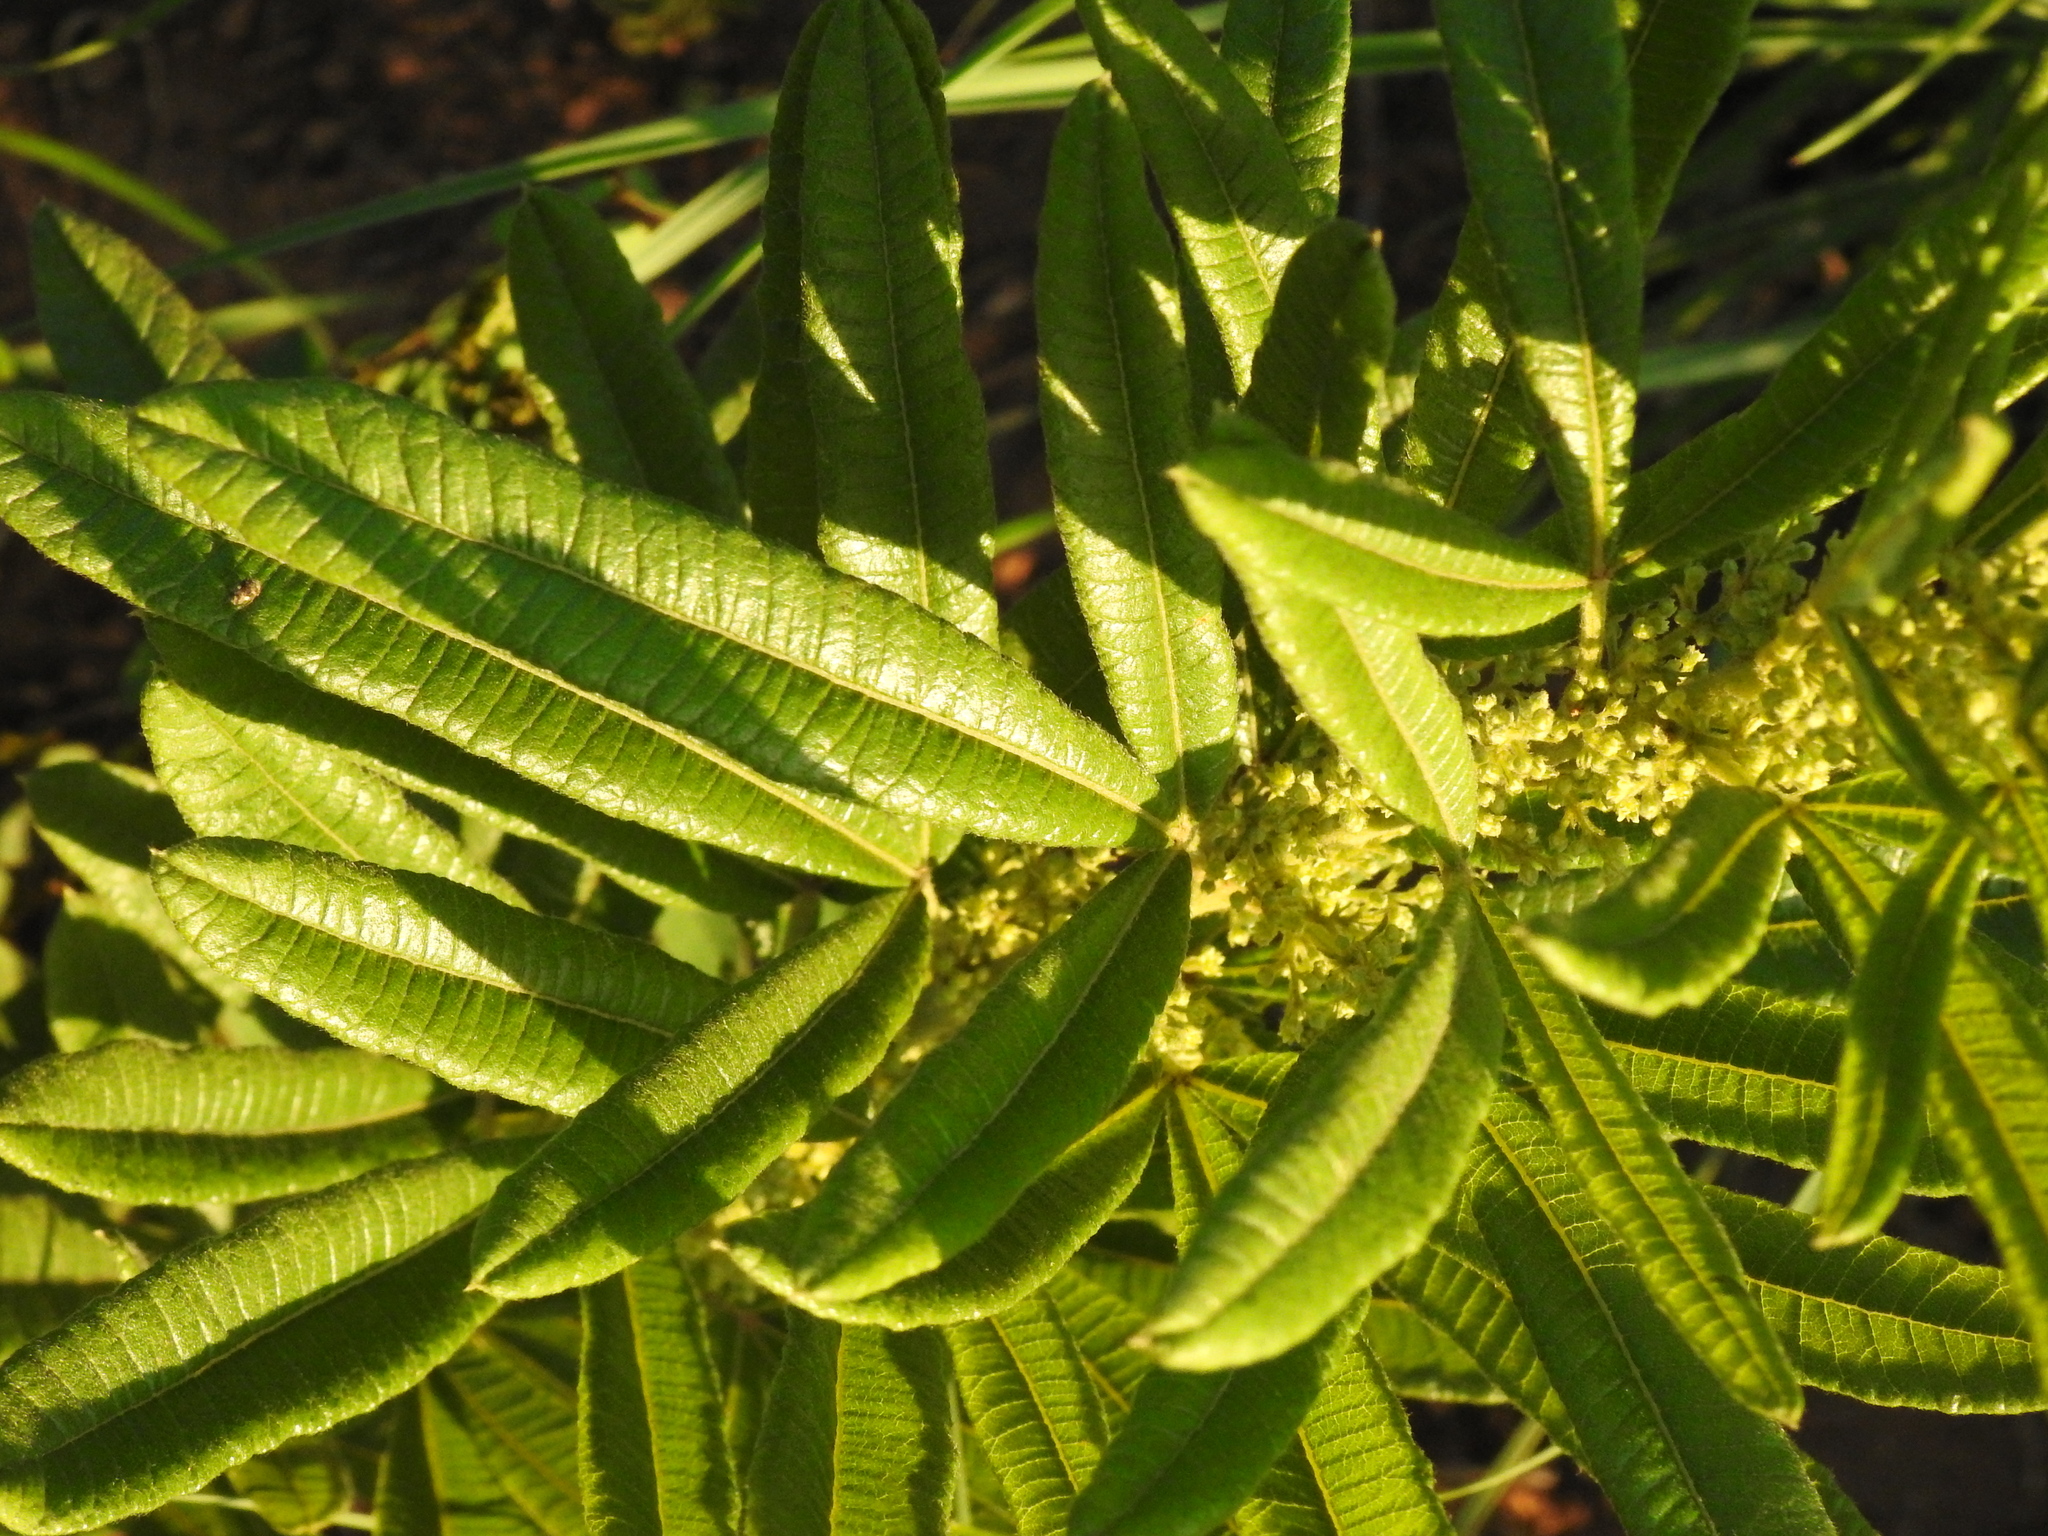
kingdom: Plantae
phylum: Tracheophyta
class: Magnoliopsida
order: Sapindales
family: Anacardiaceae
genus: Searsia
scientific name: Searsia discolor
